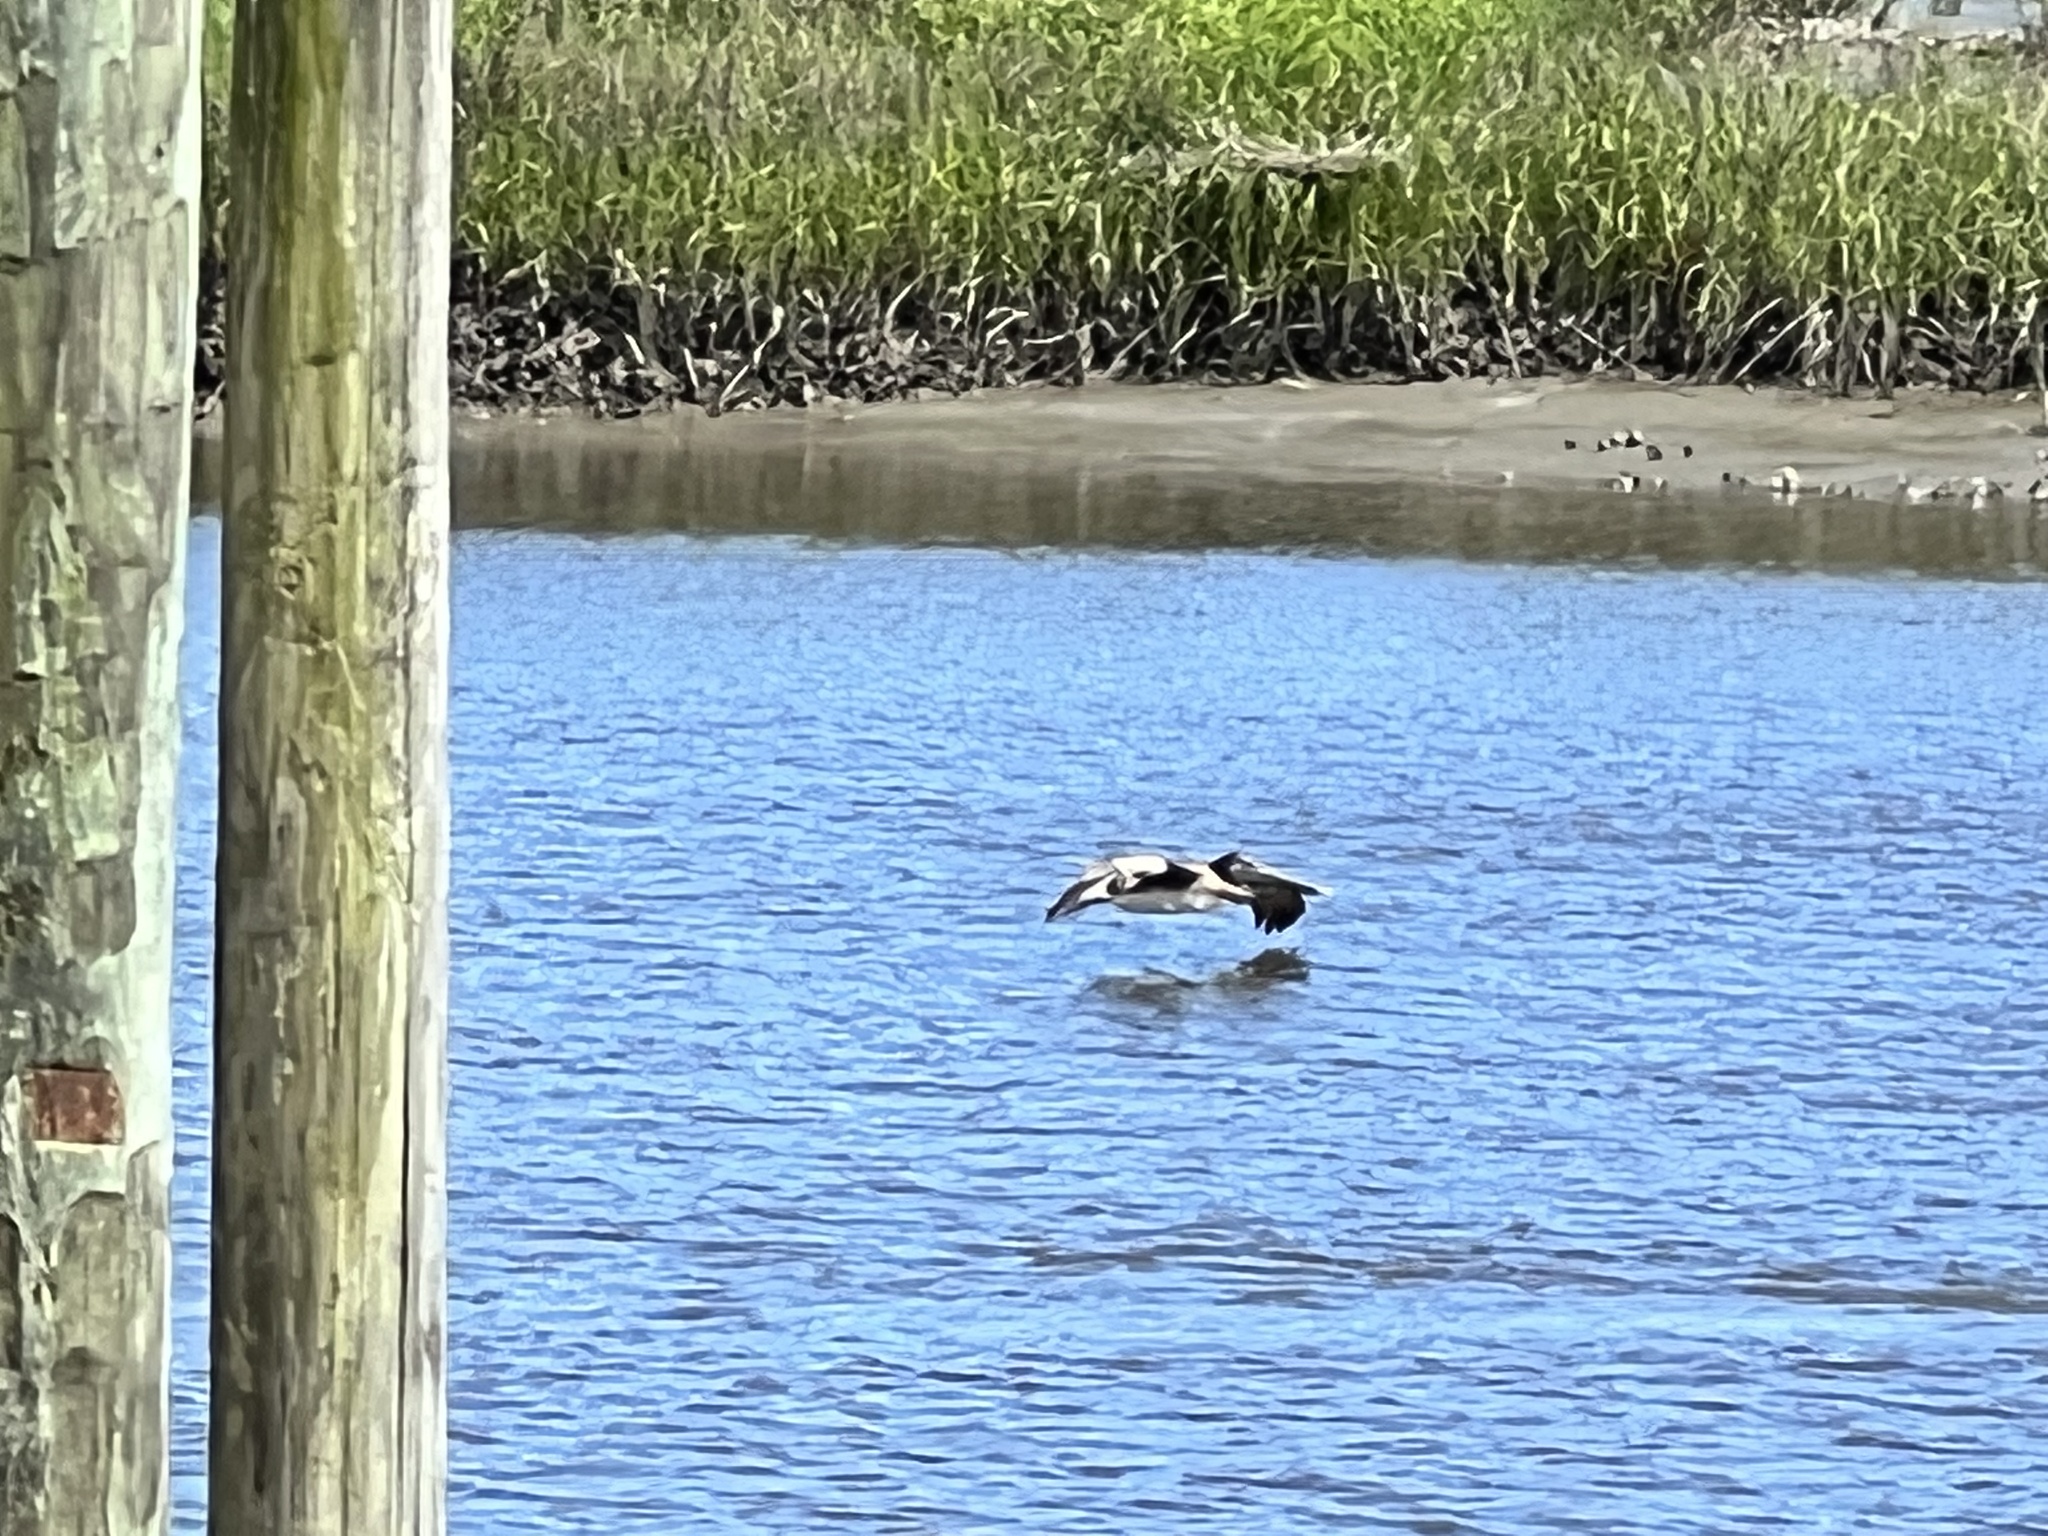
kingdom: Animalia
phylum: Chordata
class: Aves
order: Pelecaniformes
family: Pelecanidae
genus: Pelecanus
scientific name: Pelecanus occidentalis
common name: Brown pelican
